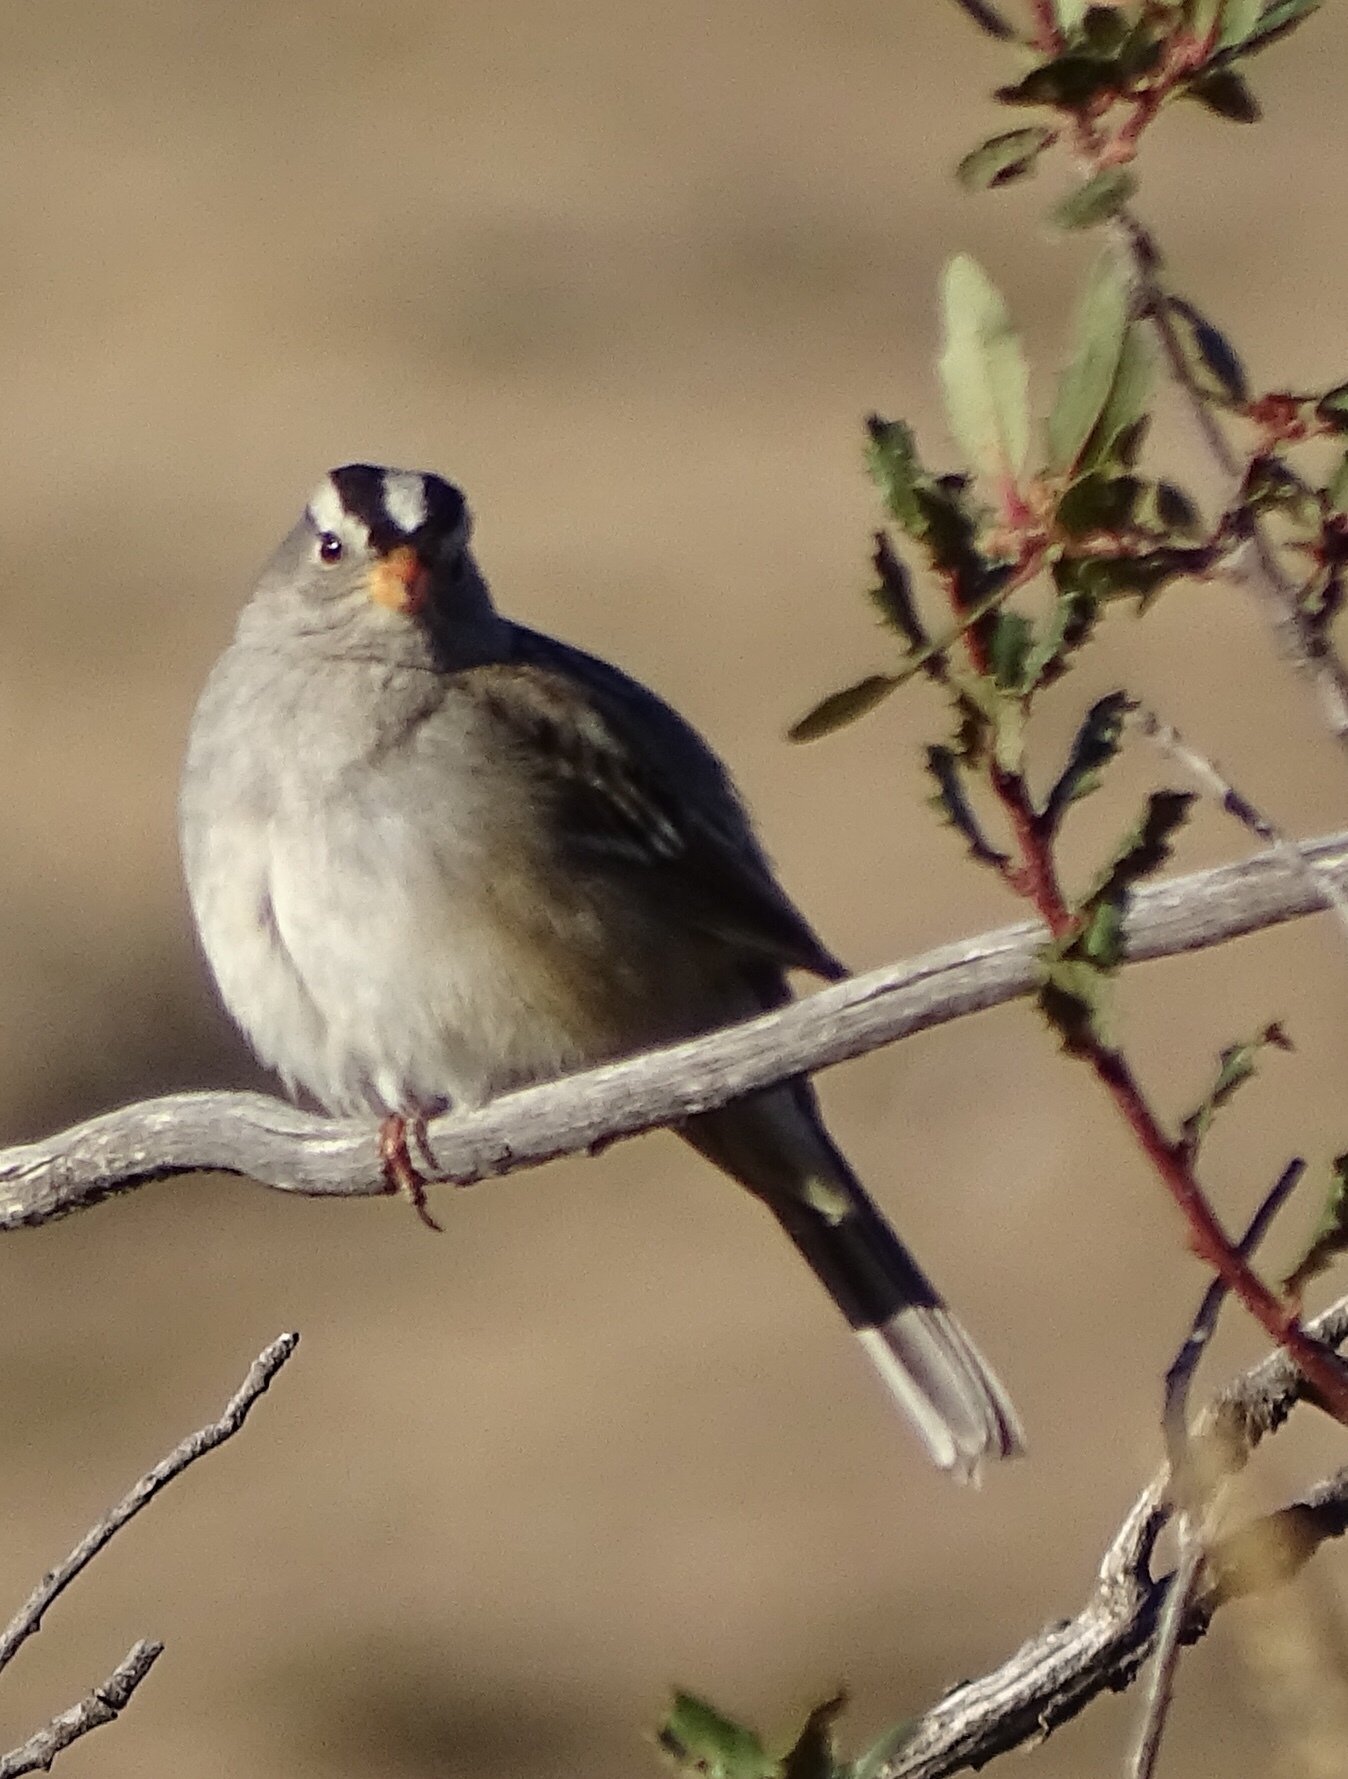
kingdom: Animalia
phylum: Chordata
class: Aves
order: Passeriformes
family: Passerellidae
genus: Zonotrichia
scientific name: Zonotrichia leucophrys
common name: White-crowned sparrow
